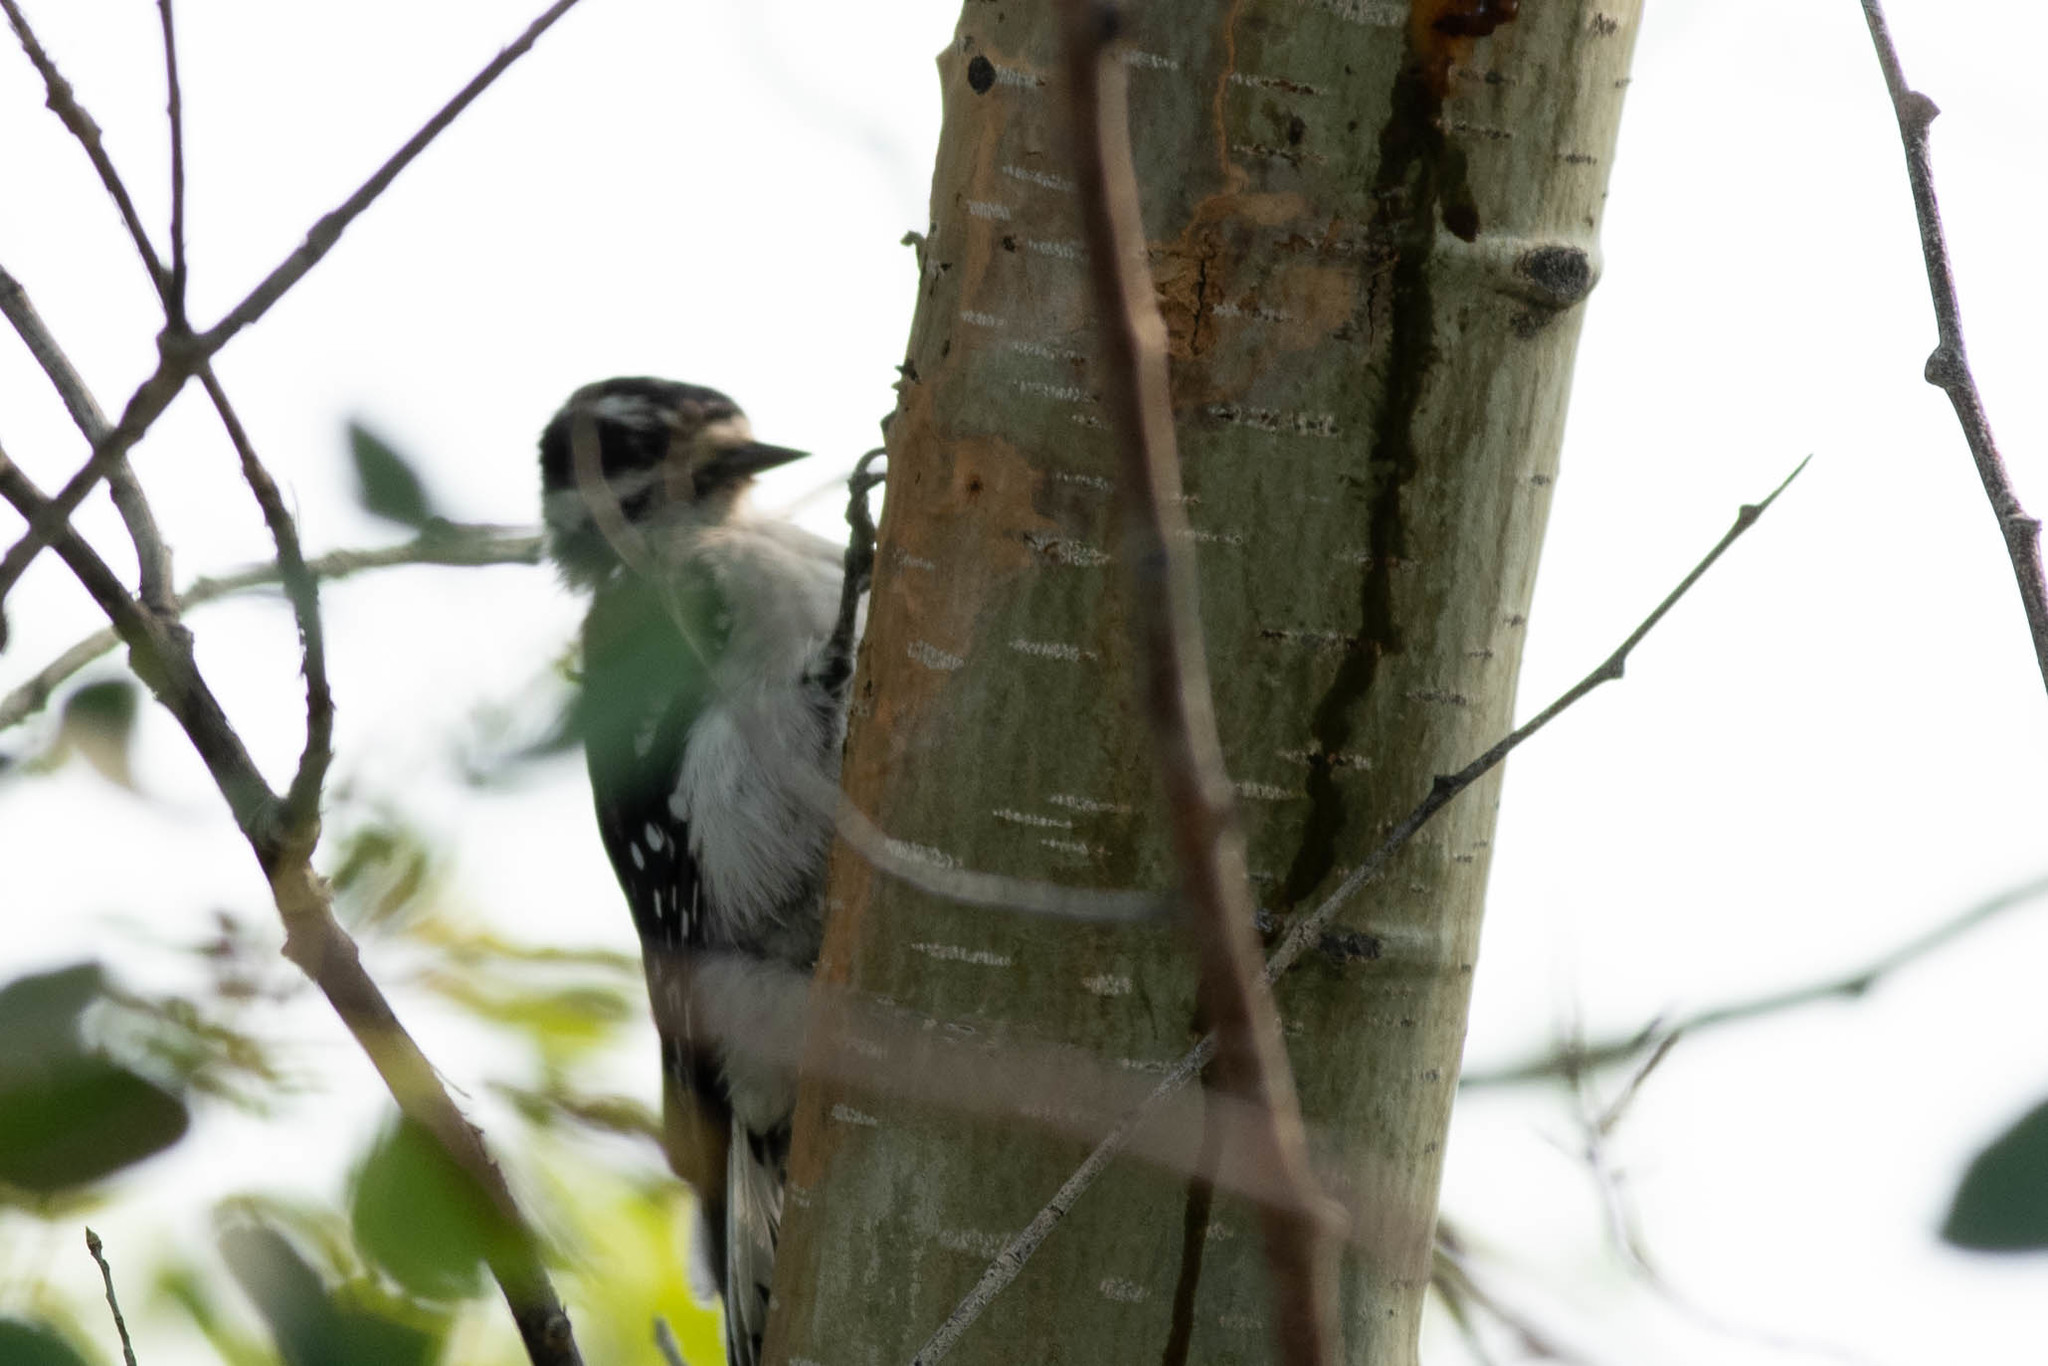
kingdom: Animalia
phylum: Chordata
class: Aves
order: Piciformes
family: Picidae
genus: Dryobates
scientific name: Dryobates pubescens
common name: Downy woodpecker
